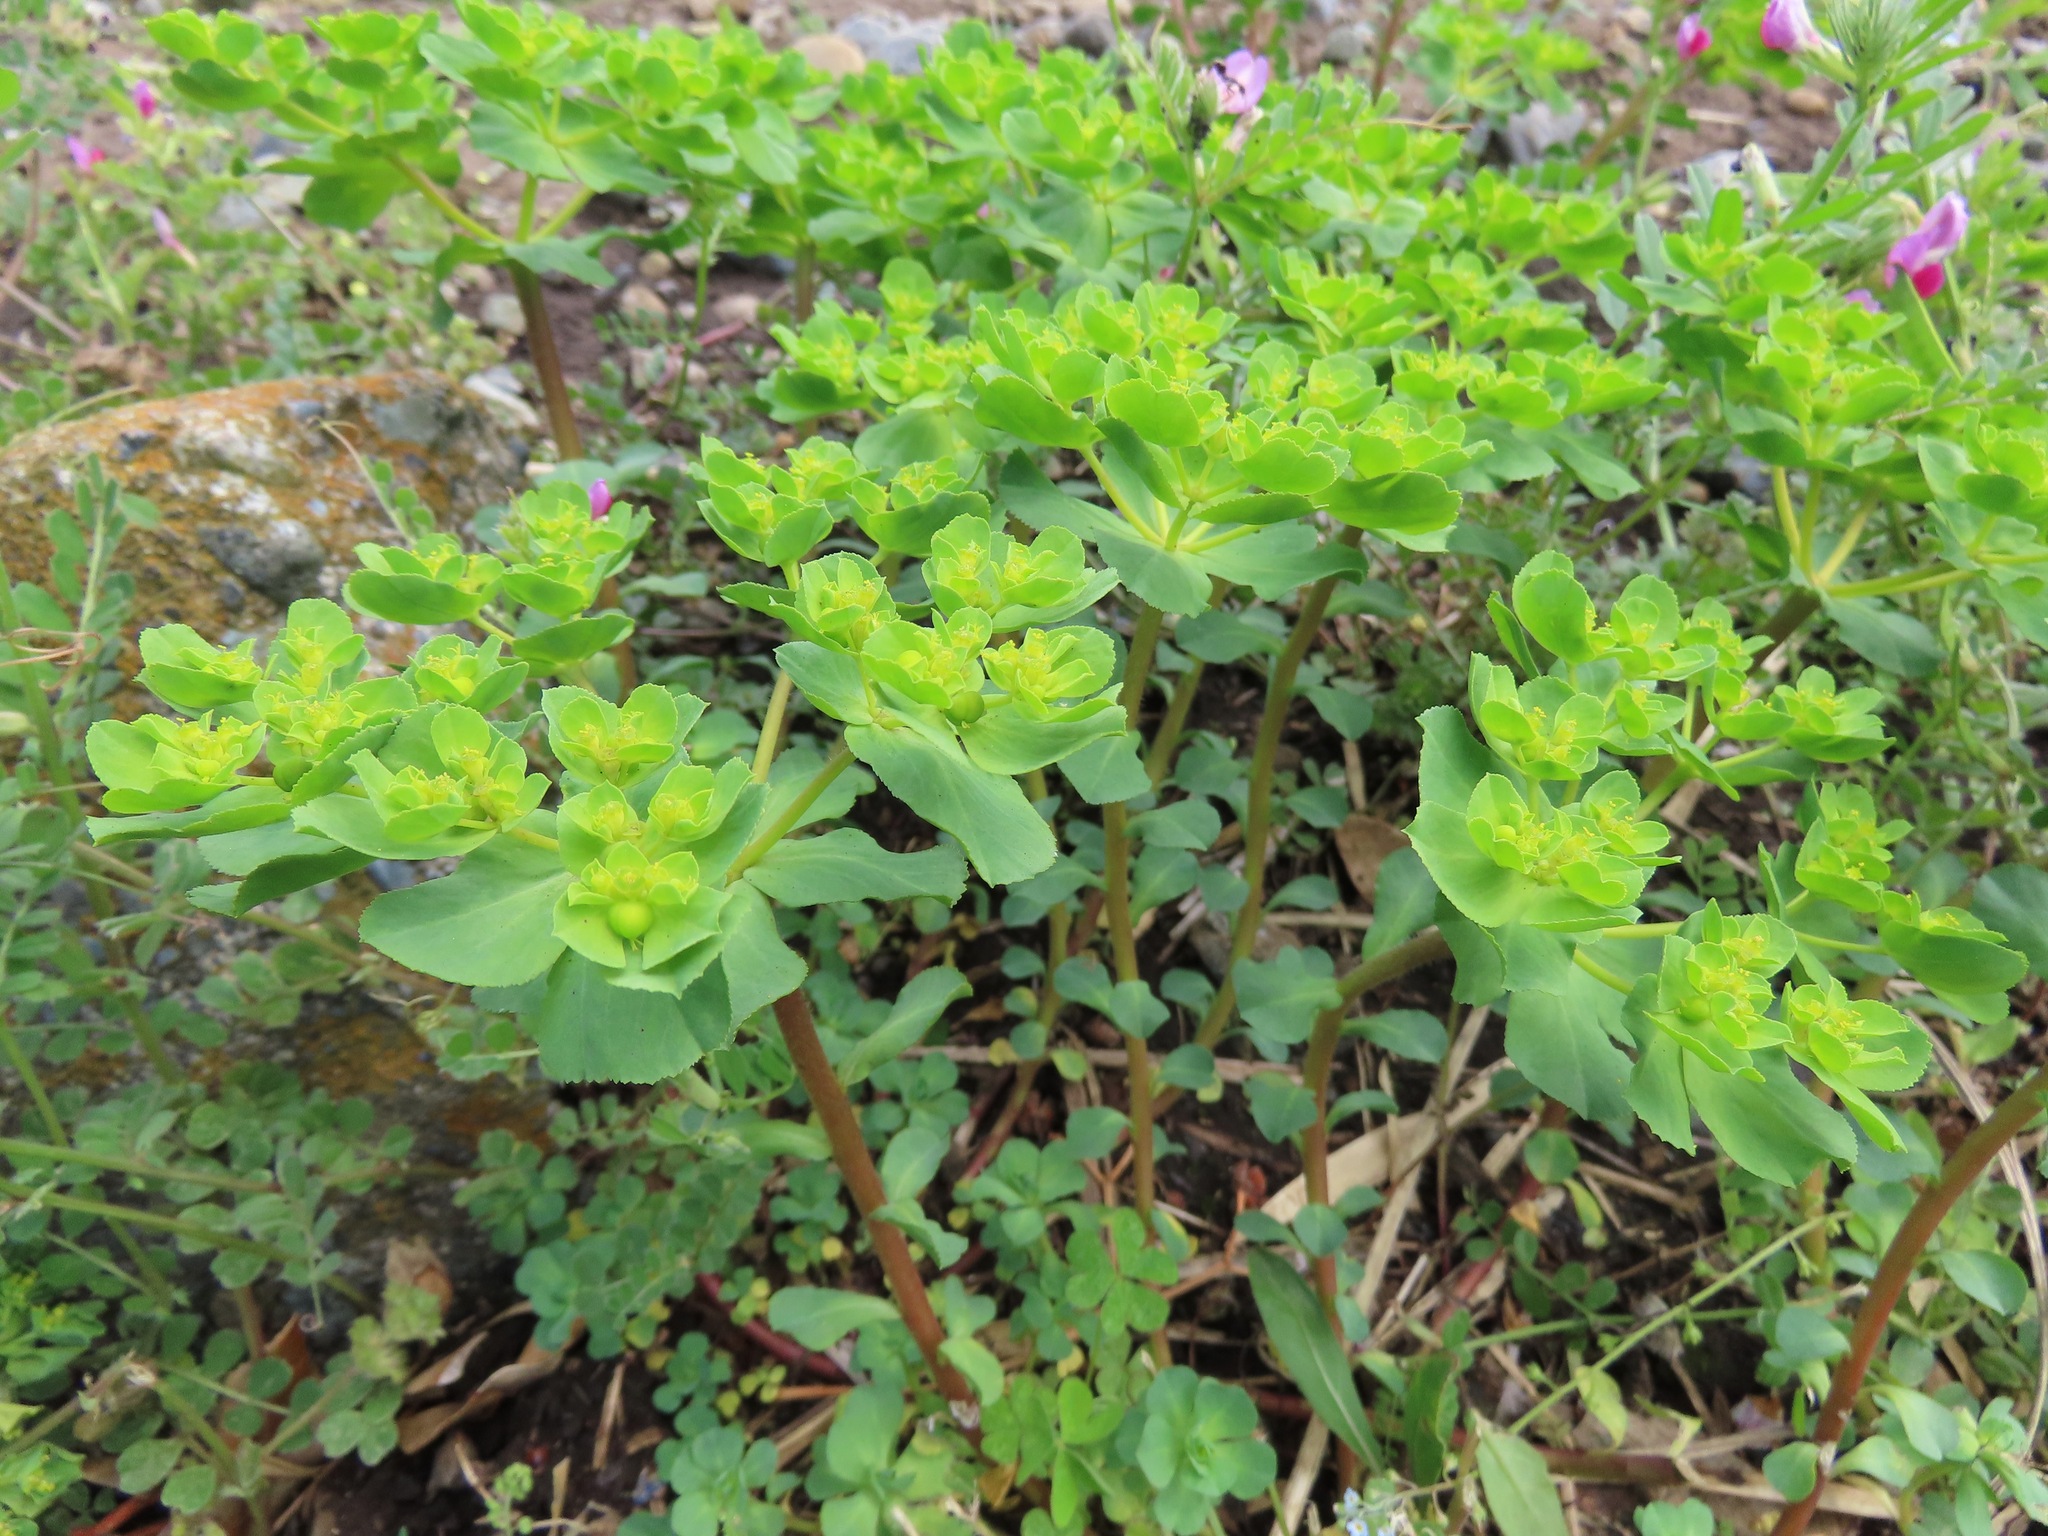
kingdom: Plantae
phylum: Tracheophyta
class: Magnoliopsida
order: Malpighiales
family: Euphorbiaceae
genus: Euphorbia
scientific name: Euphorbia helioscopia
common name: Sun spurge
